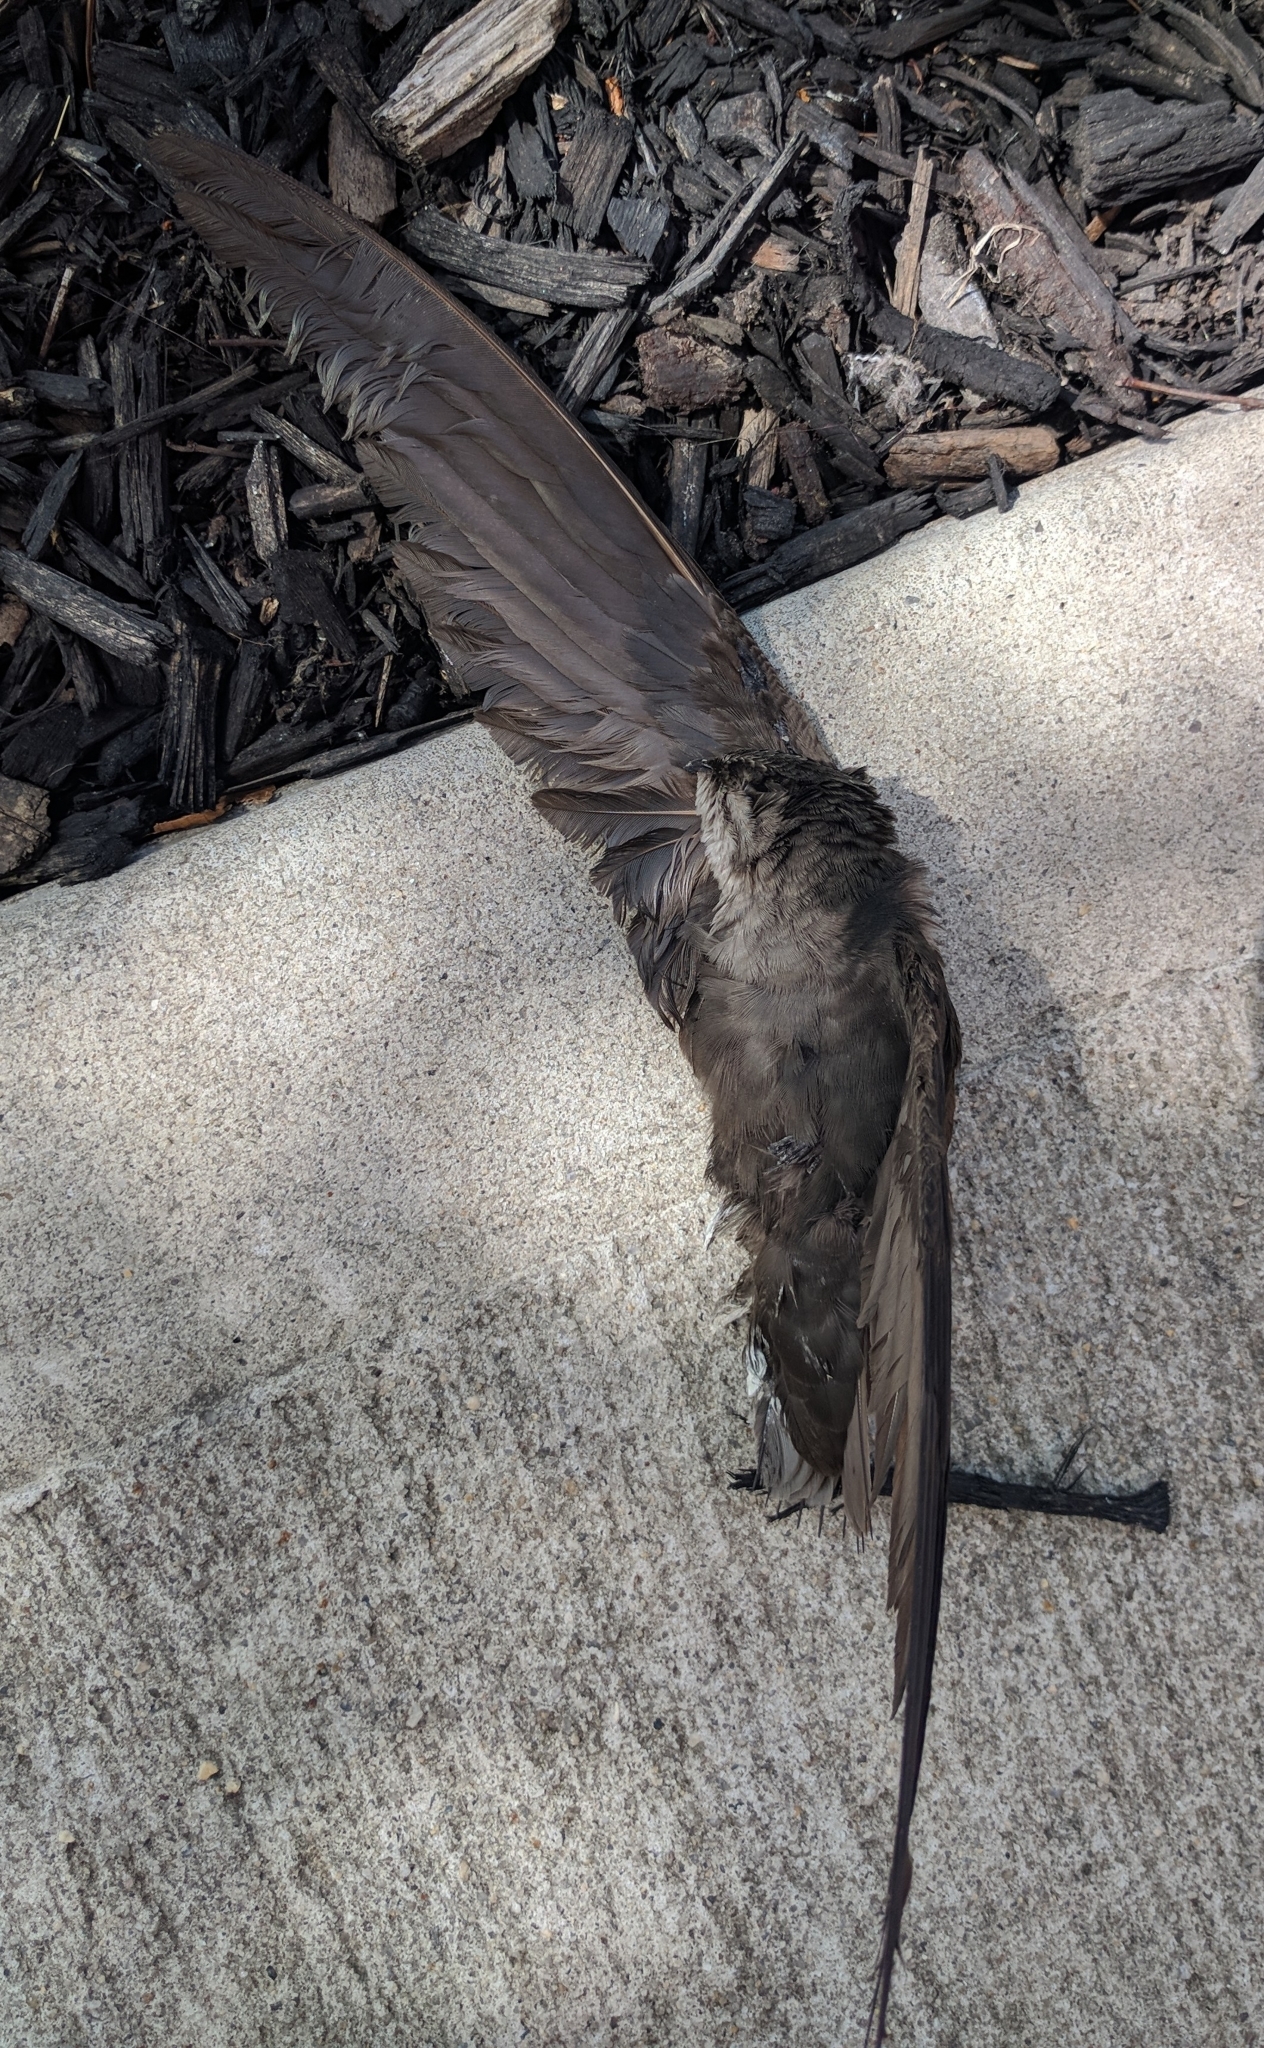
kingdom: Animalia
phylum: Chordata
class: Aves
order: Apodiformes
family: Apodidae
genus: Chaetura
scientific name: Chaetura pelagica
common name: Chimney swift
